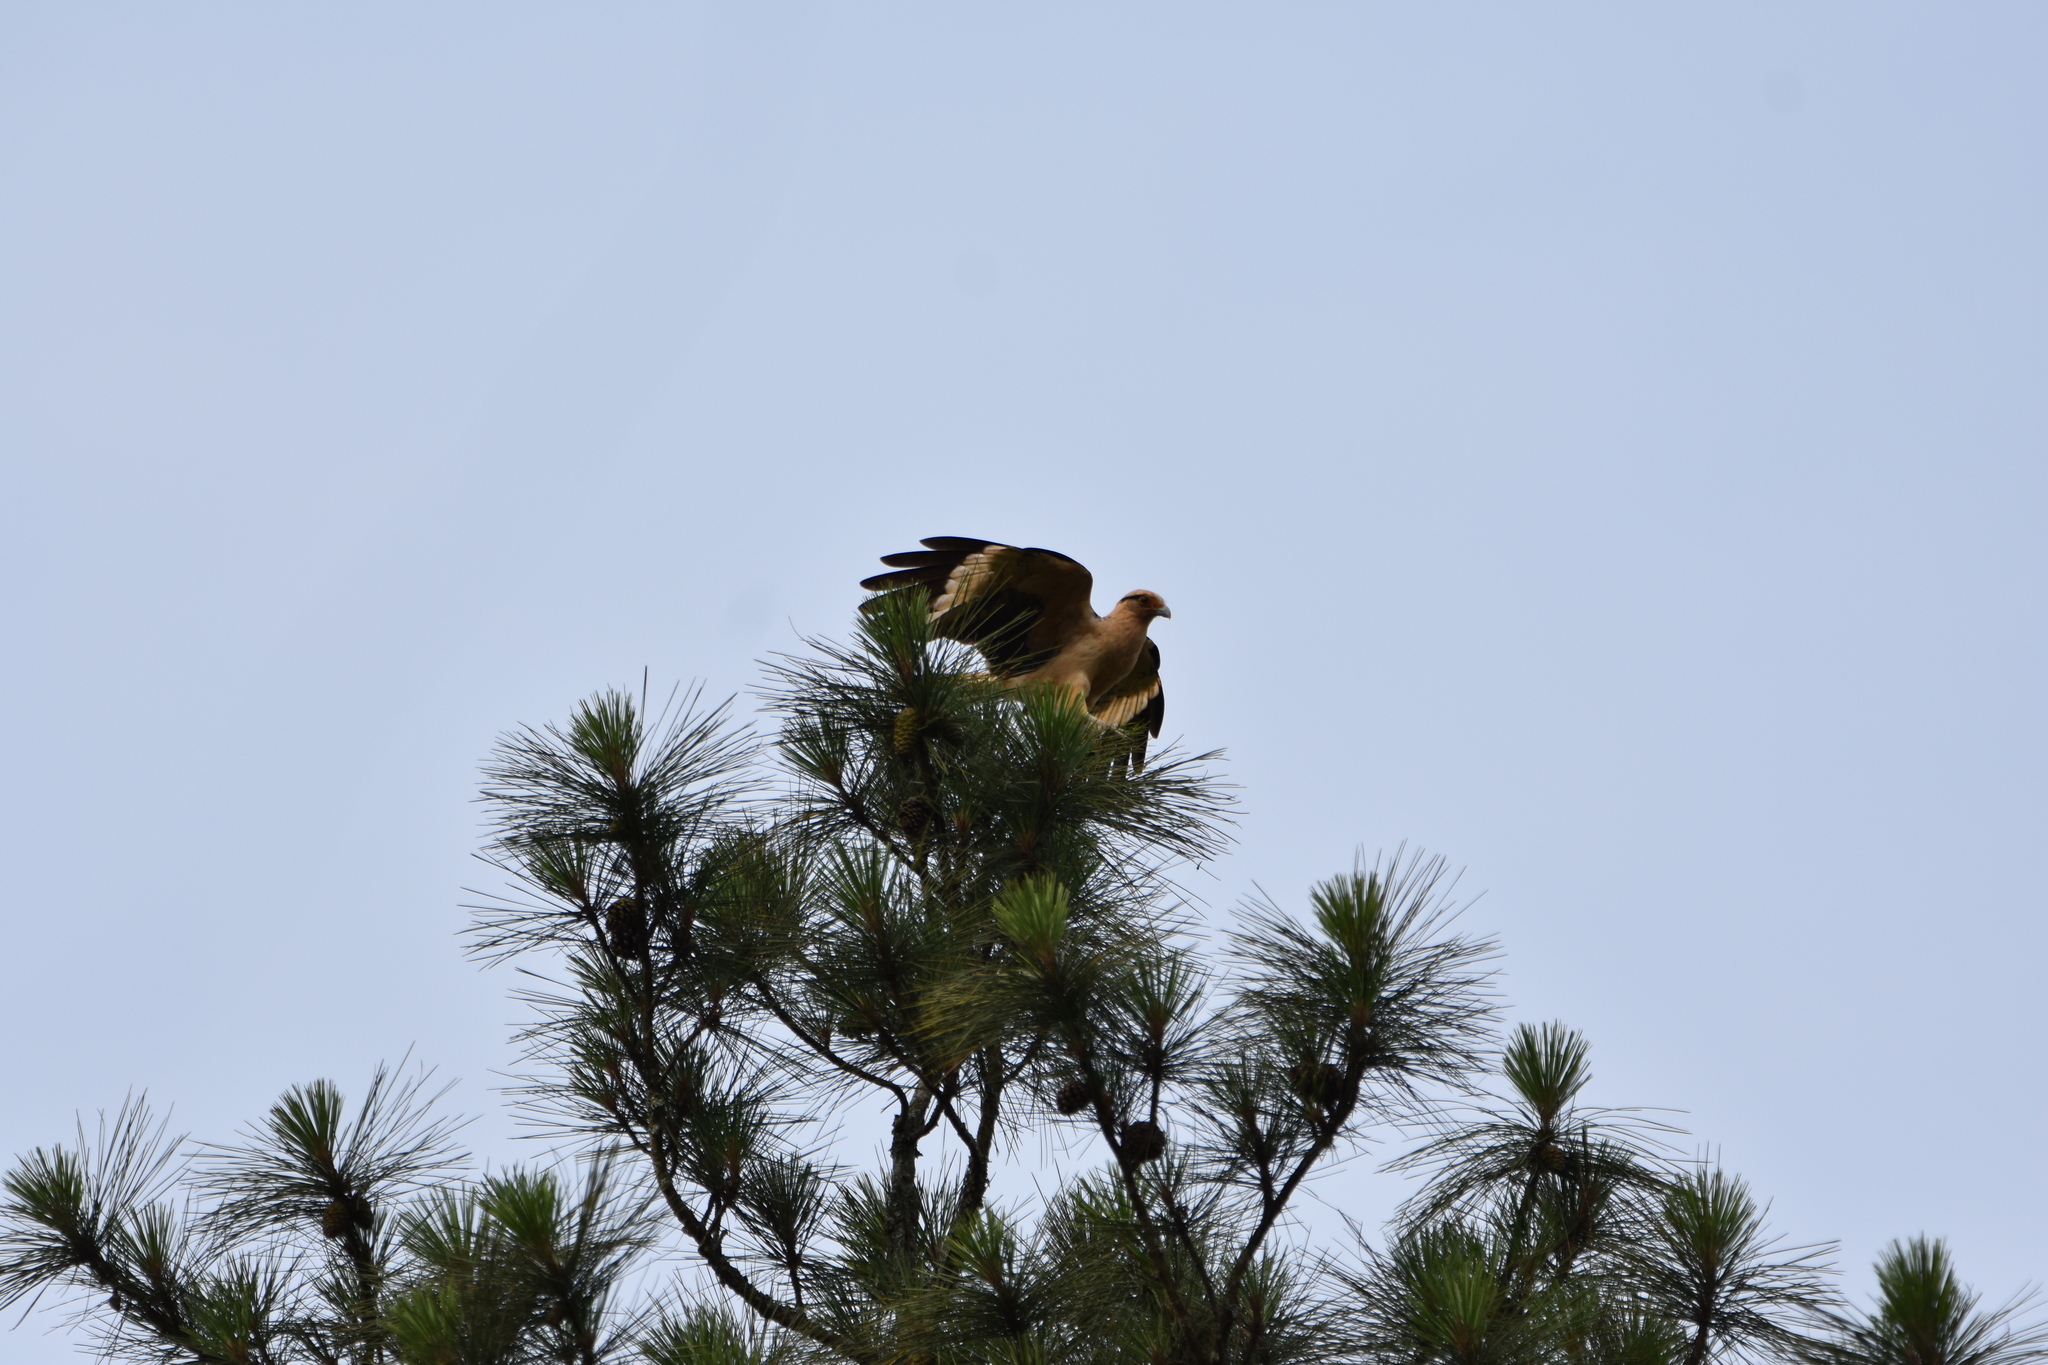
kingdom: Animalia
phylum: Chordata
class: Aves
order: Falconiformes
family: Falconidae
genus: Daptrius
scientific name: Daptrius
